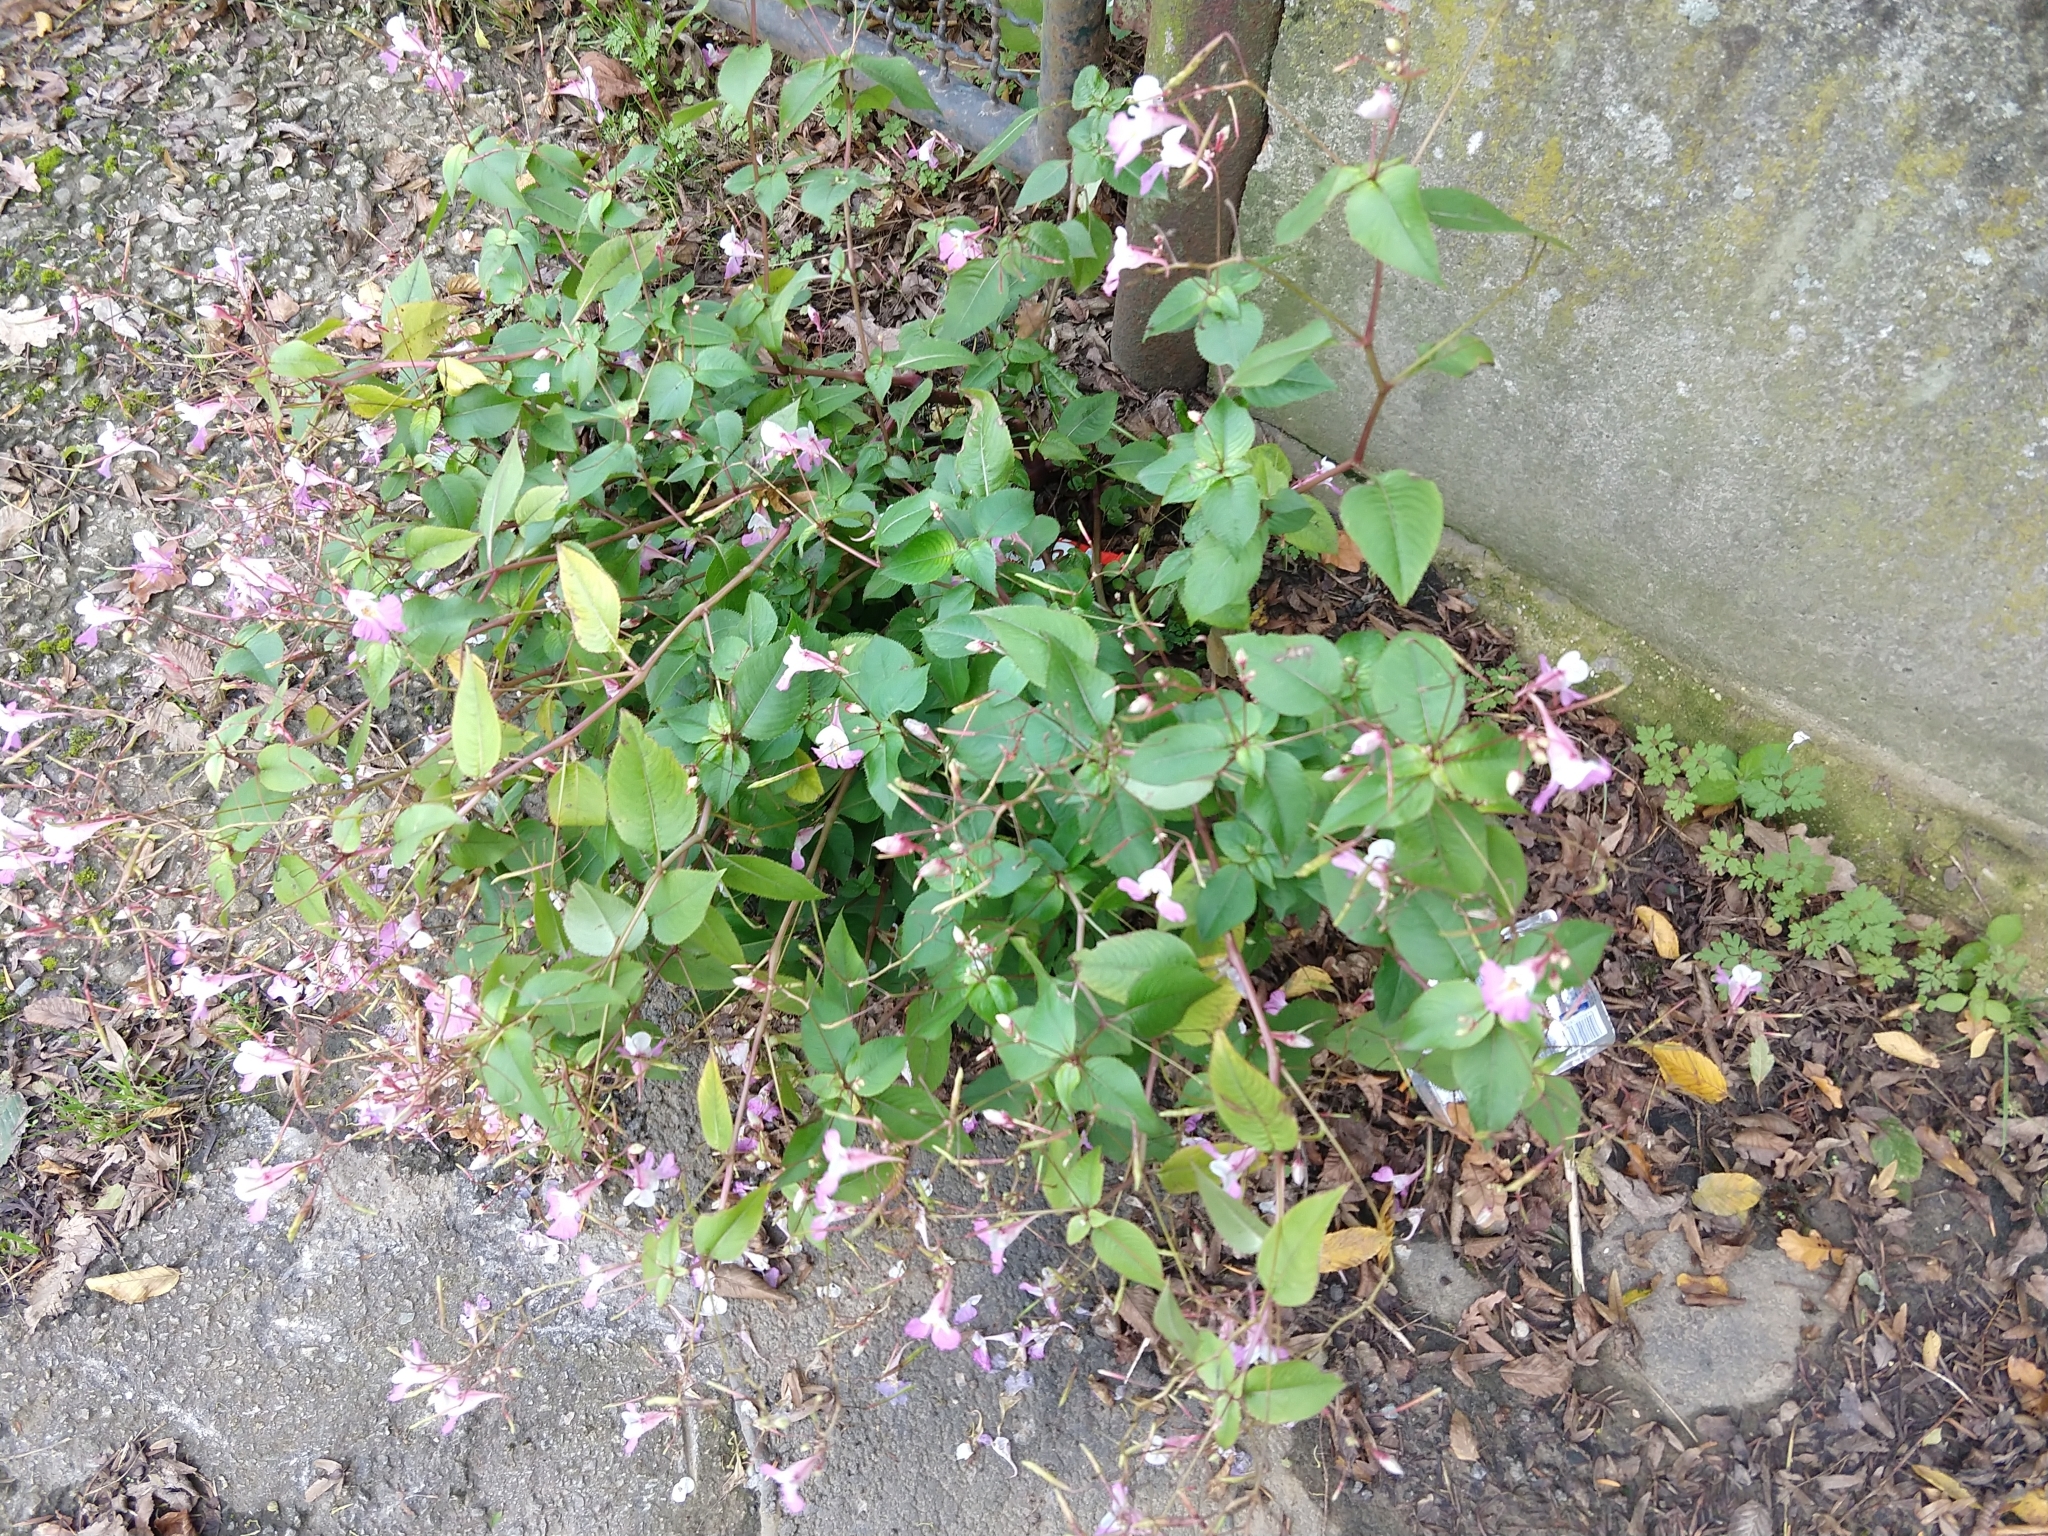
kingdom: Plantae
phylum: Tracheophyta
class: Magnoliopsida
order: Ericales
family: Balsaminaceae
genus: Impatiens
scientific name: Impatiens balfourii
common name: Balfour's touch-me-not
